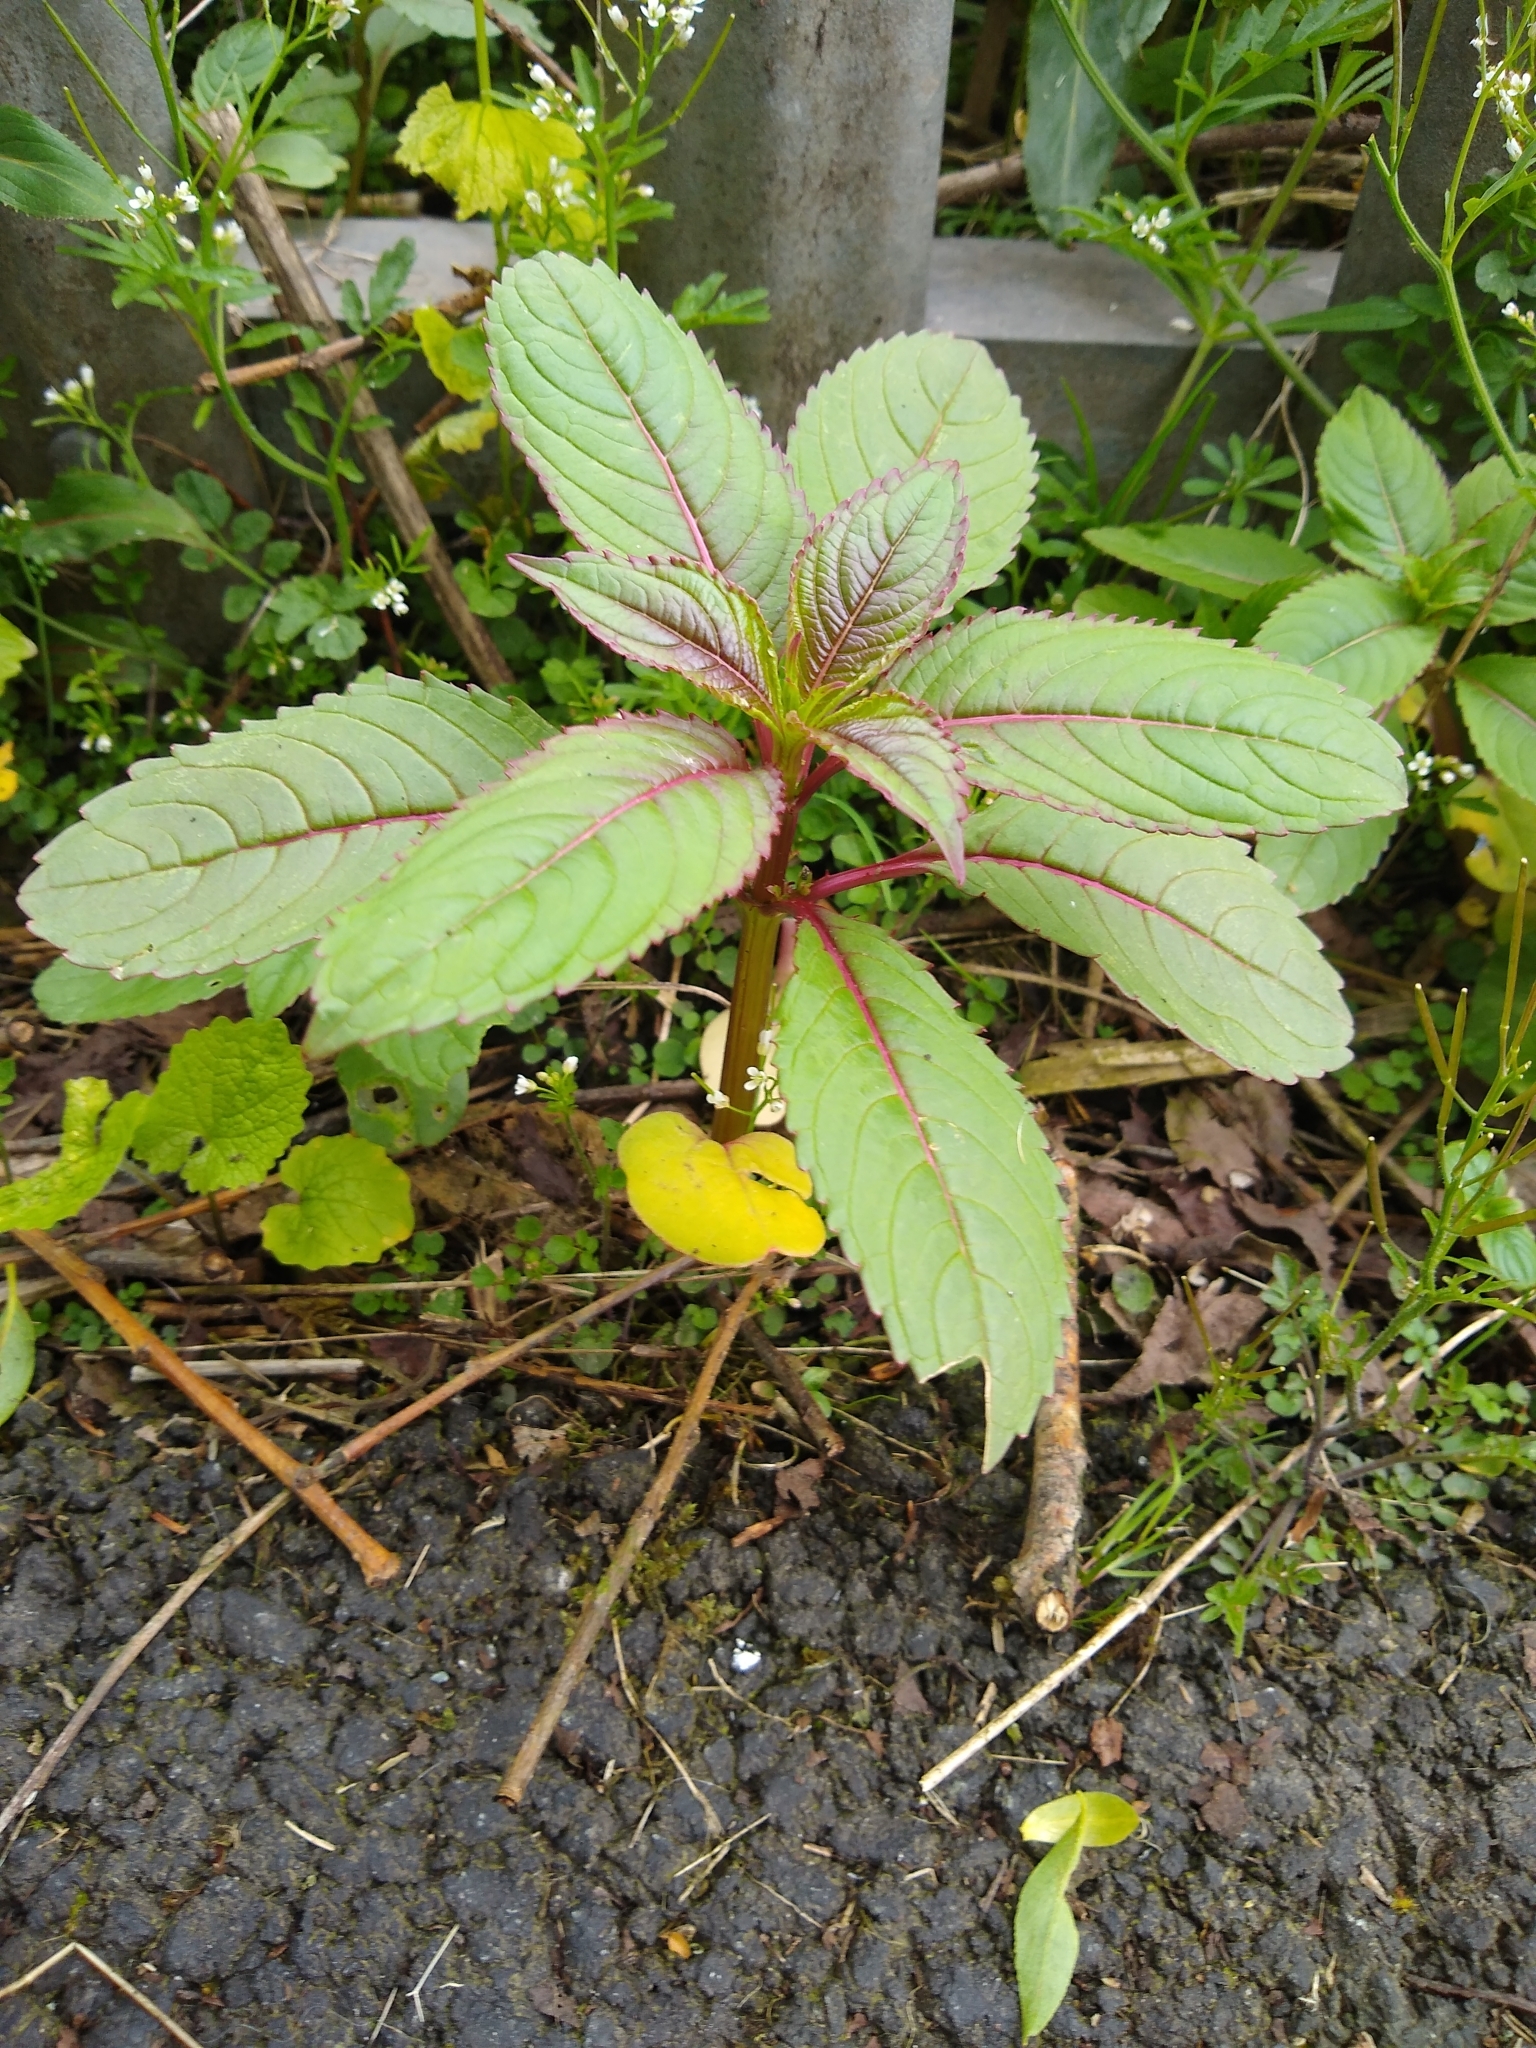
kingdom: Plantae
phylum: Tracheophyta
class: Magnoliopsida
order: Ericales
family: Balsaminaceae
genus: Impatiens
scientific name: Impatiens glandulifera
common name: Himalayan balsam
